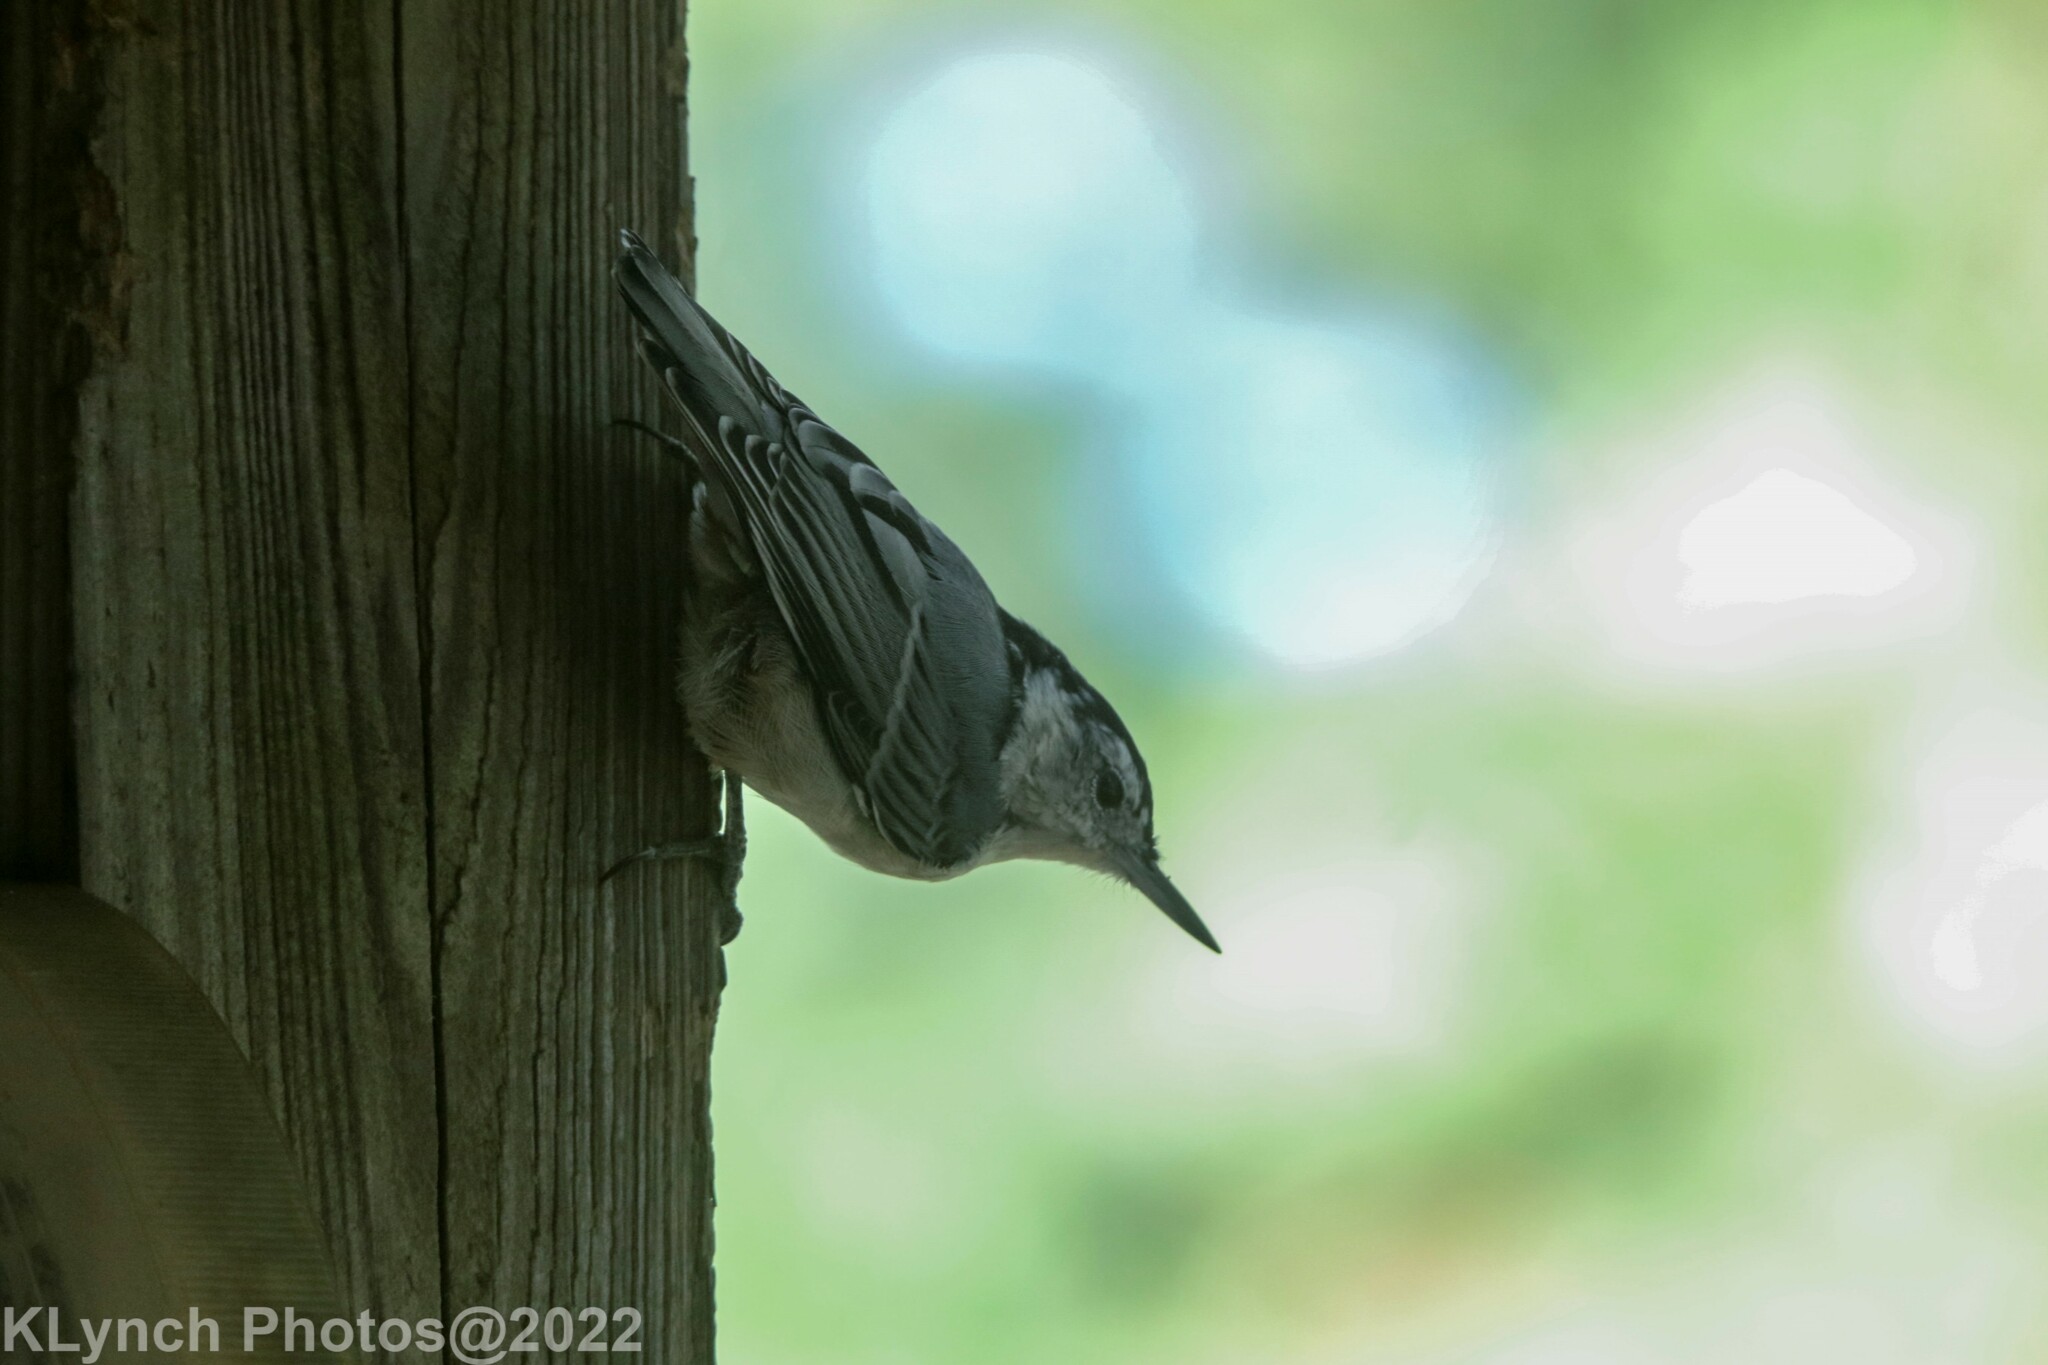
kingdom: Animalia
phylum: Chordata
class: Aves
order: Passeriformes
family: Sittidae
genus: Sitta
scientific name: Sitta carolinensis
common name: White-breasted nuthatch
